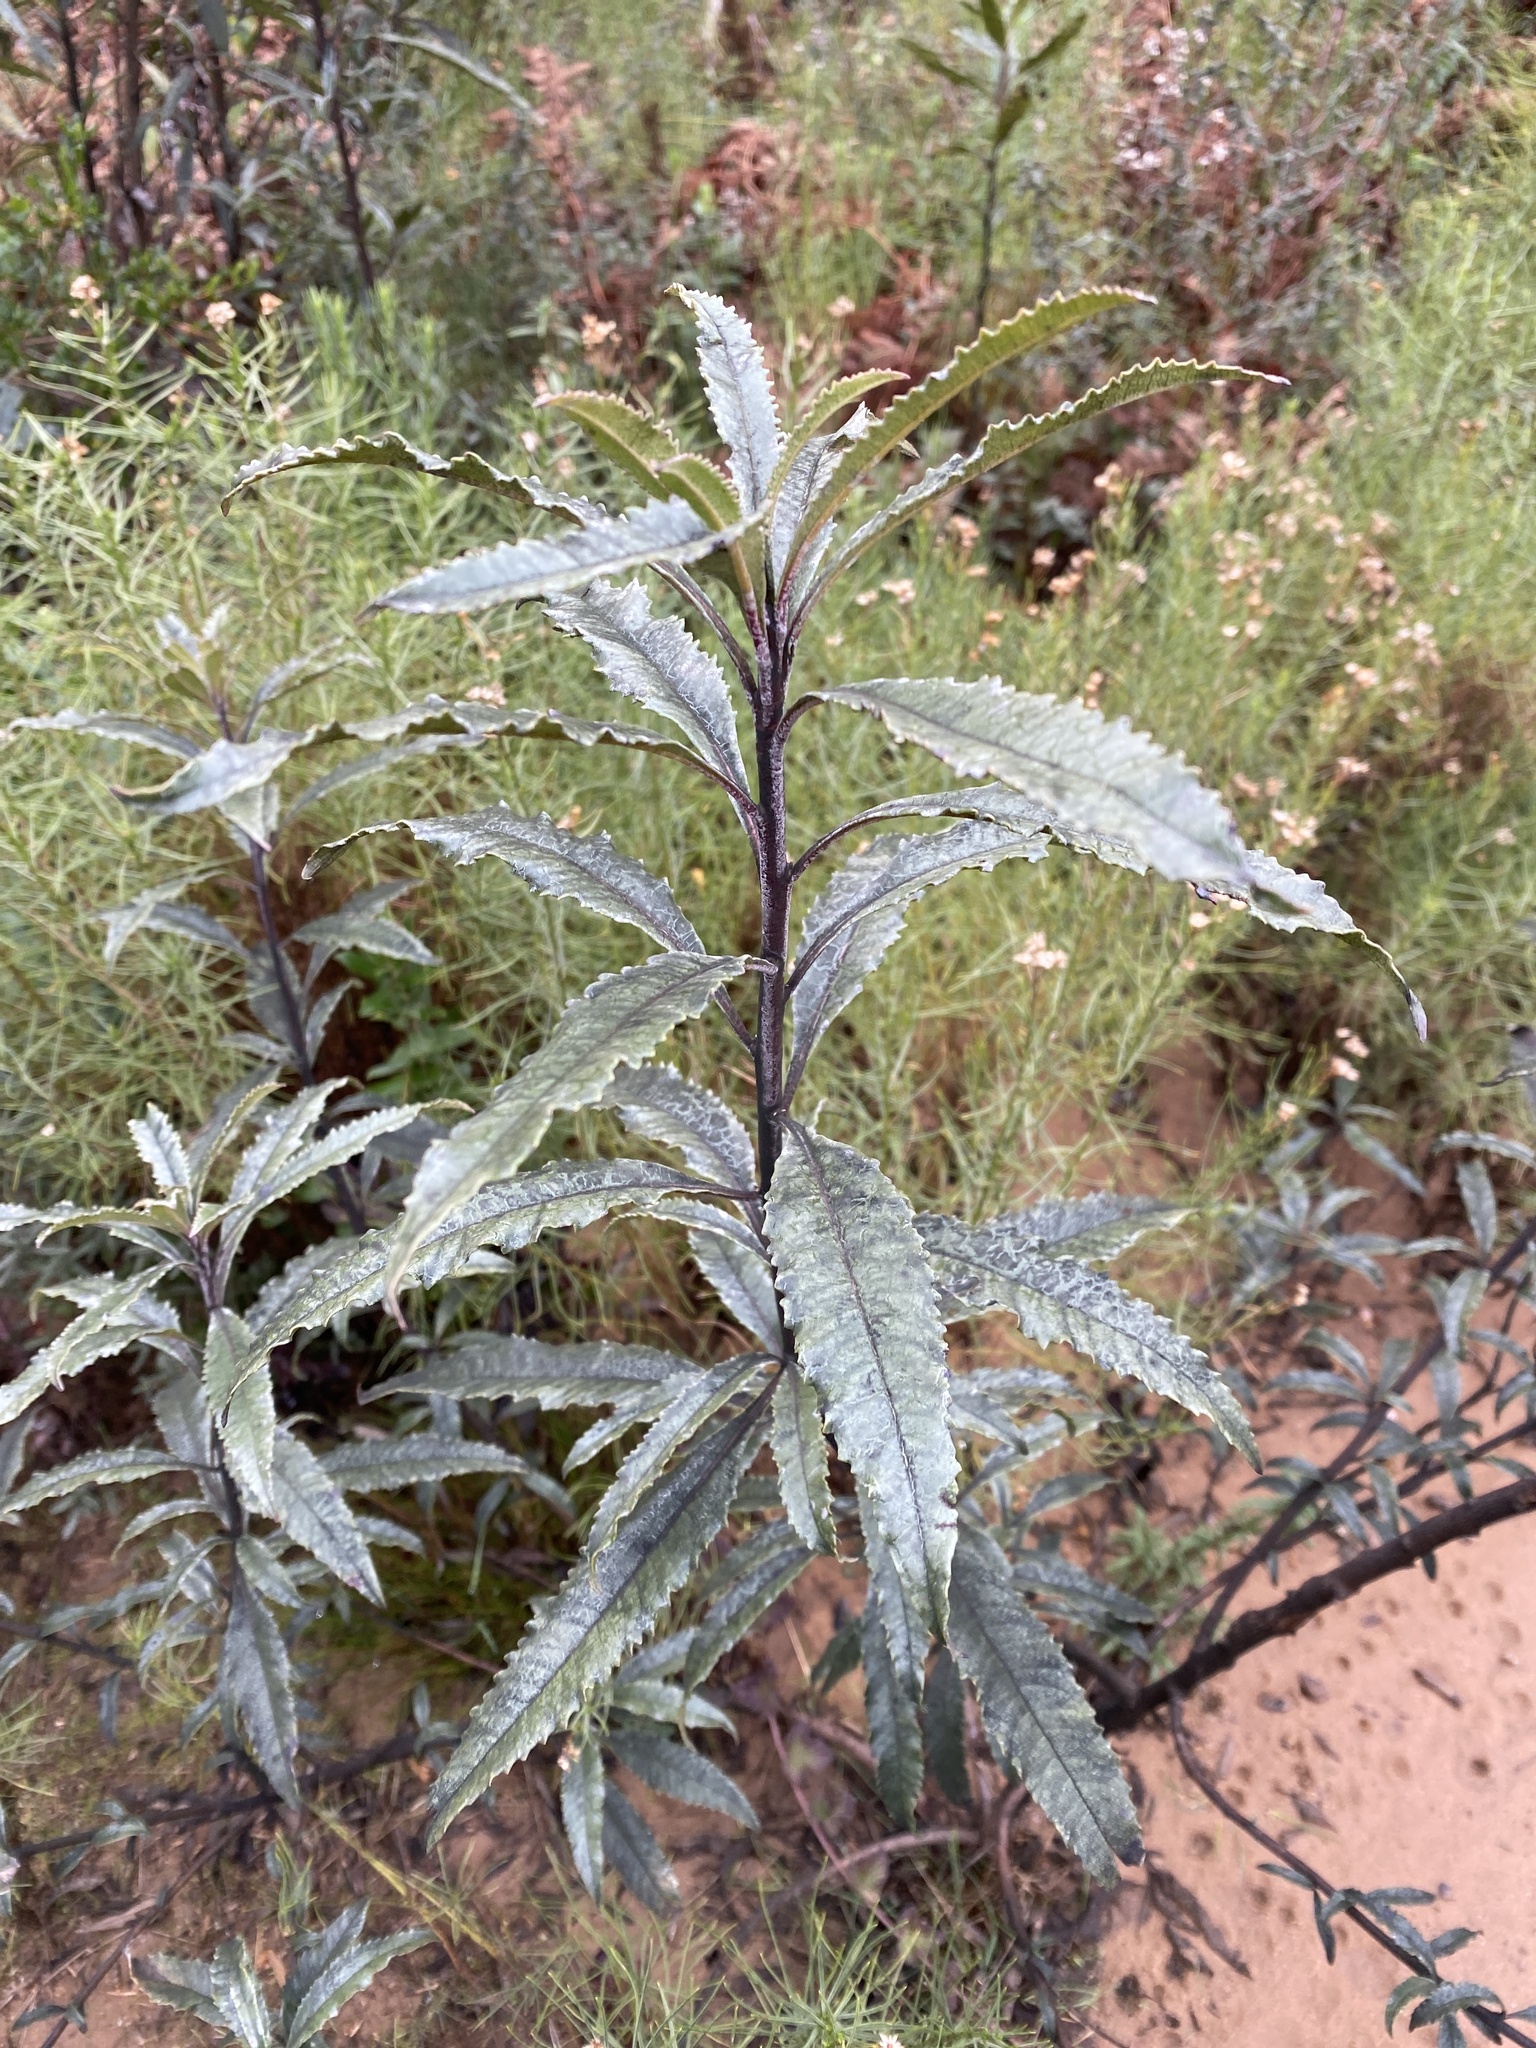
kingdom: Plantae
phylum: Tracheophyta
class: Magnoliopsida
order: Boraginales
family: Namaceae
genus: Eriodictyon
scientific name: Eriodictyon californicum
